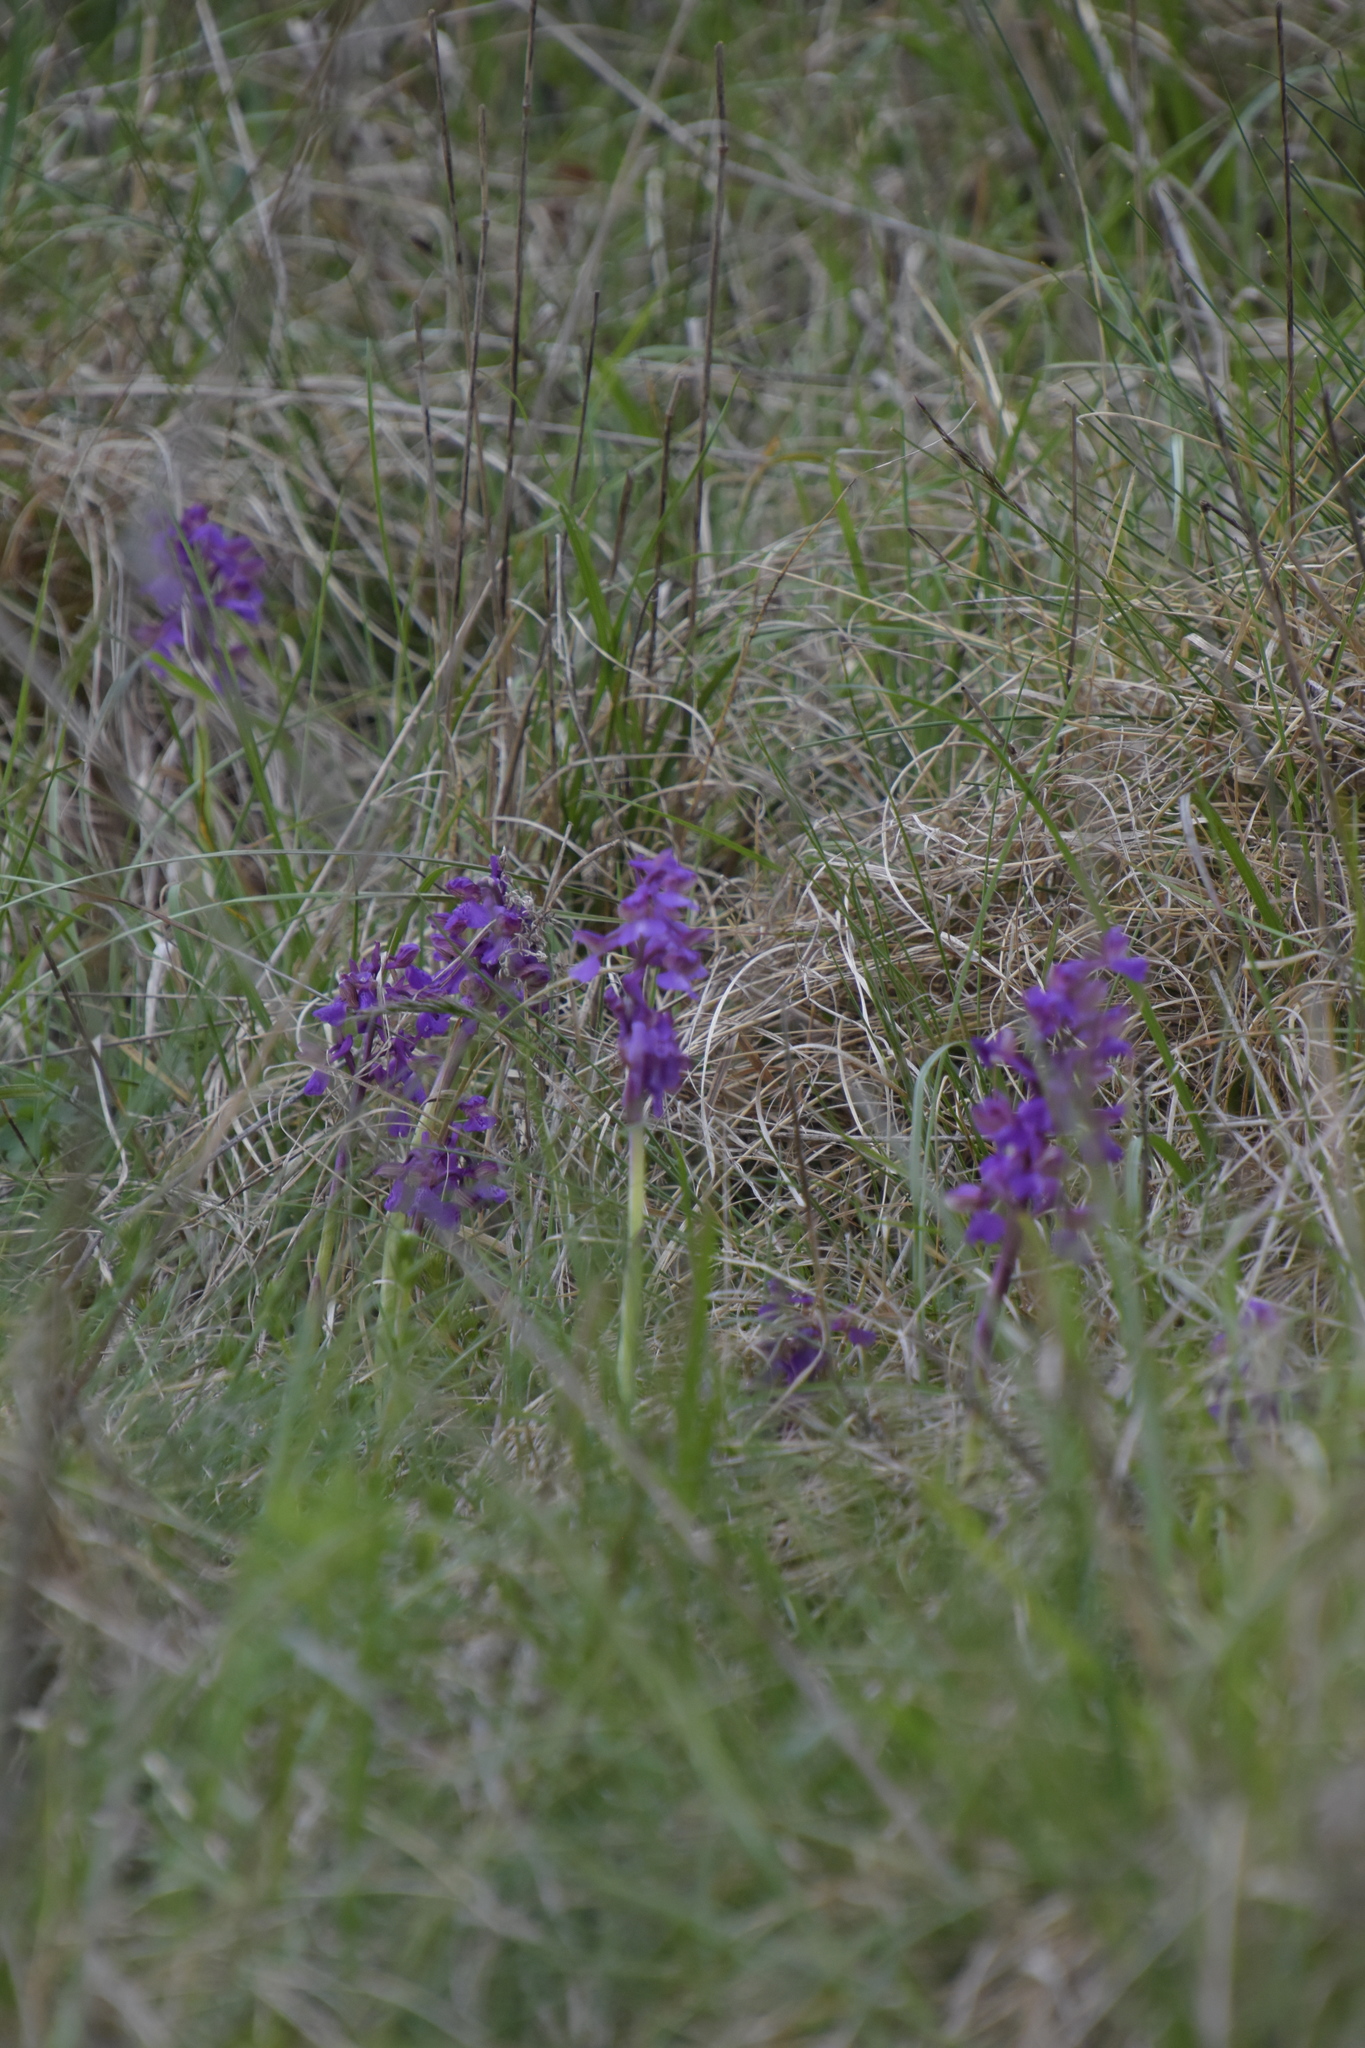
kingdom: Plantae
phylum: Tracheophyta
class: Liliopsida
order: Asparagales
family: Orchidaceae
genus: Anacamptis
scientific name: Anacamptis morio
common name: Green-winged orchid
